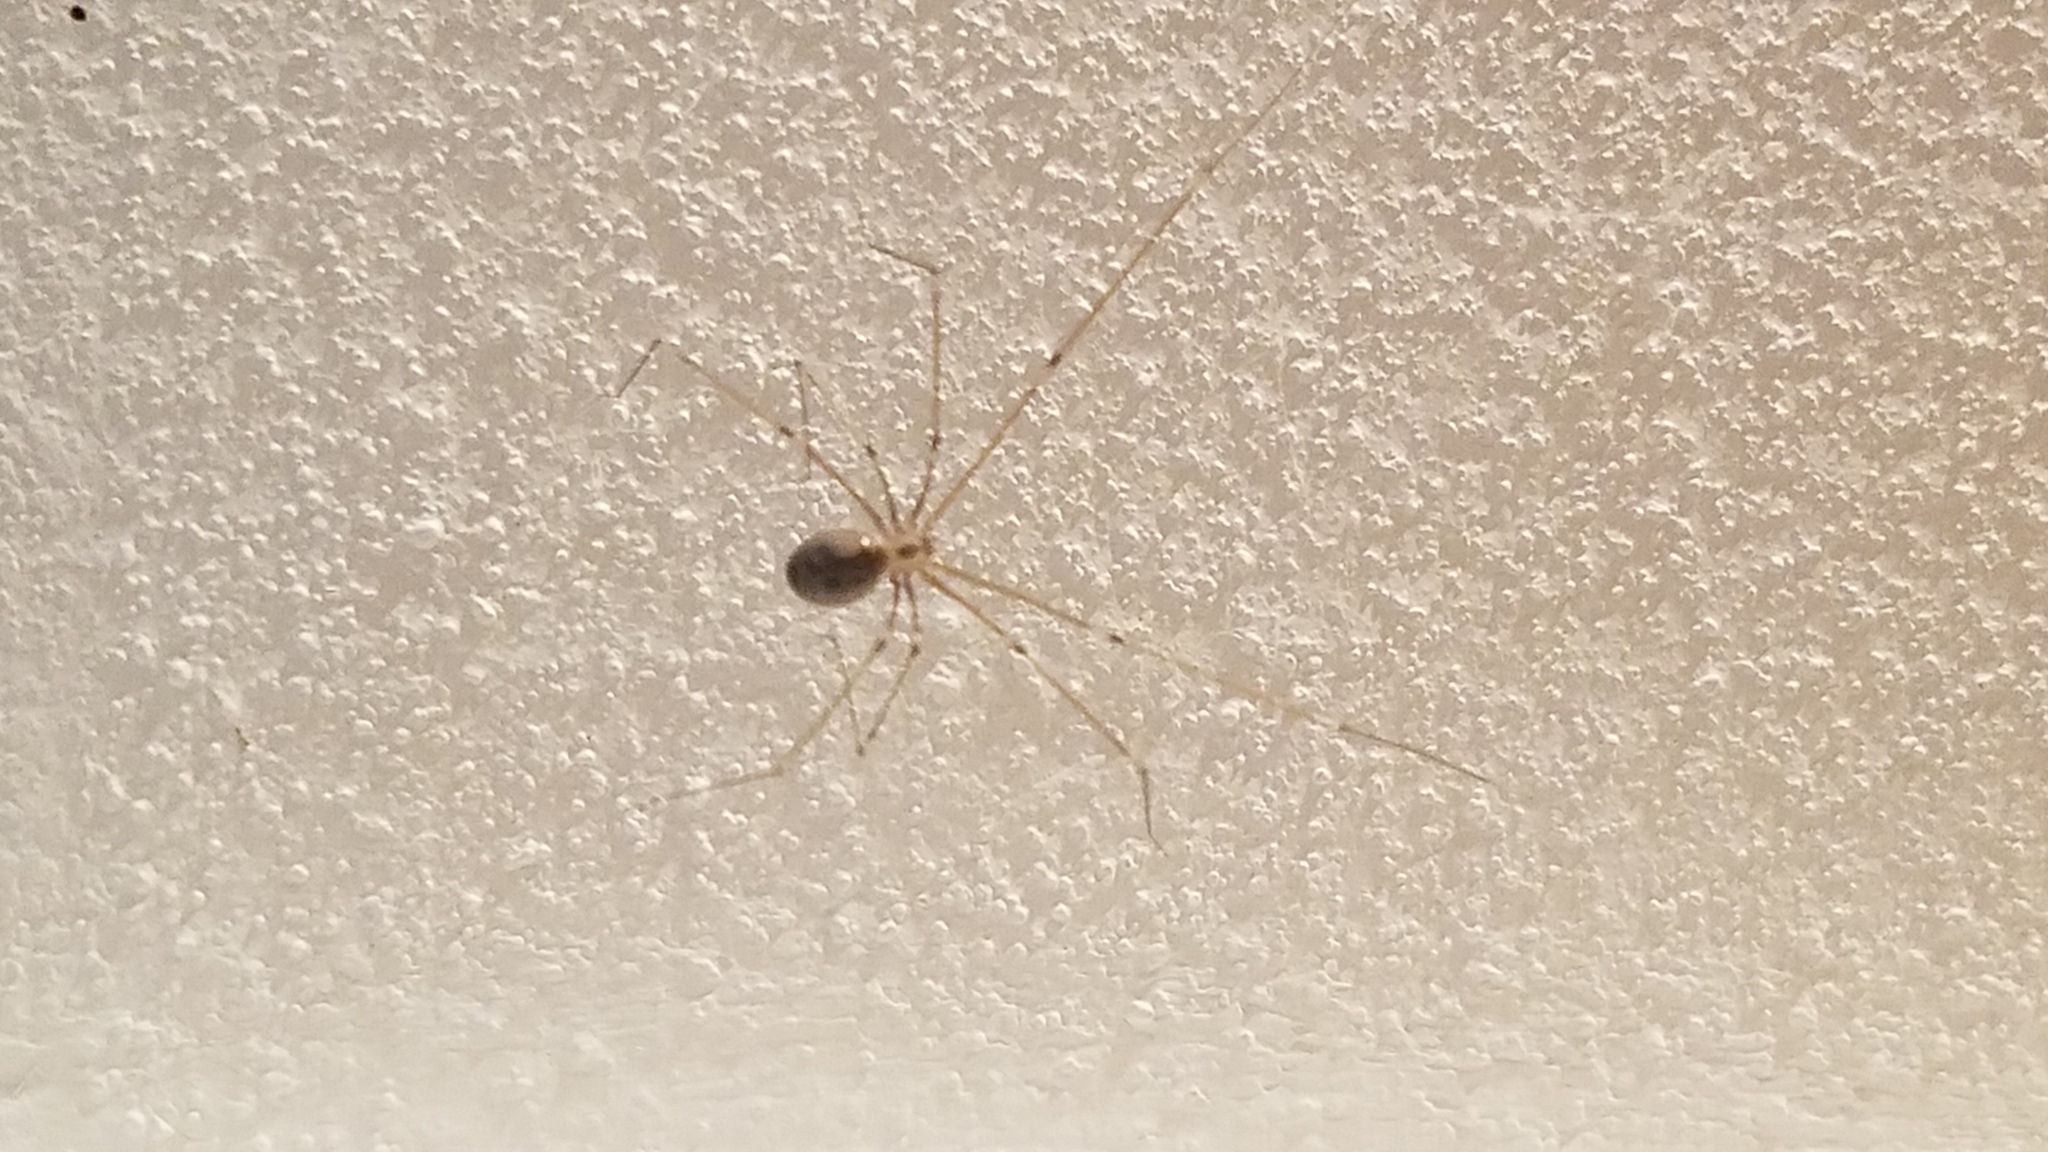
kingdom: Animalia
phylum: Arthropoda
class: Arachnida
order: Araneae
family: Pholcidae
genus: Pholcus
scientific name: Pholcus phalangioides
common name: Longbodied cellar spider
